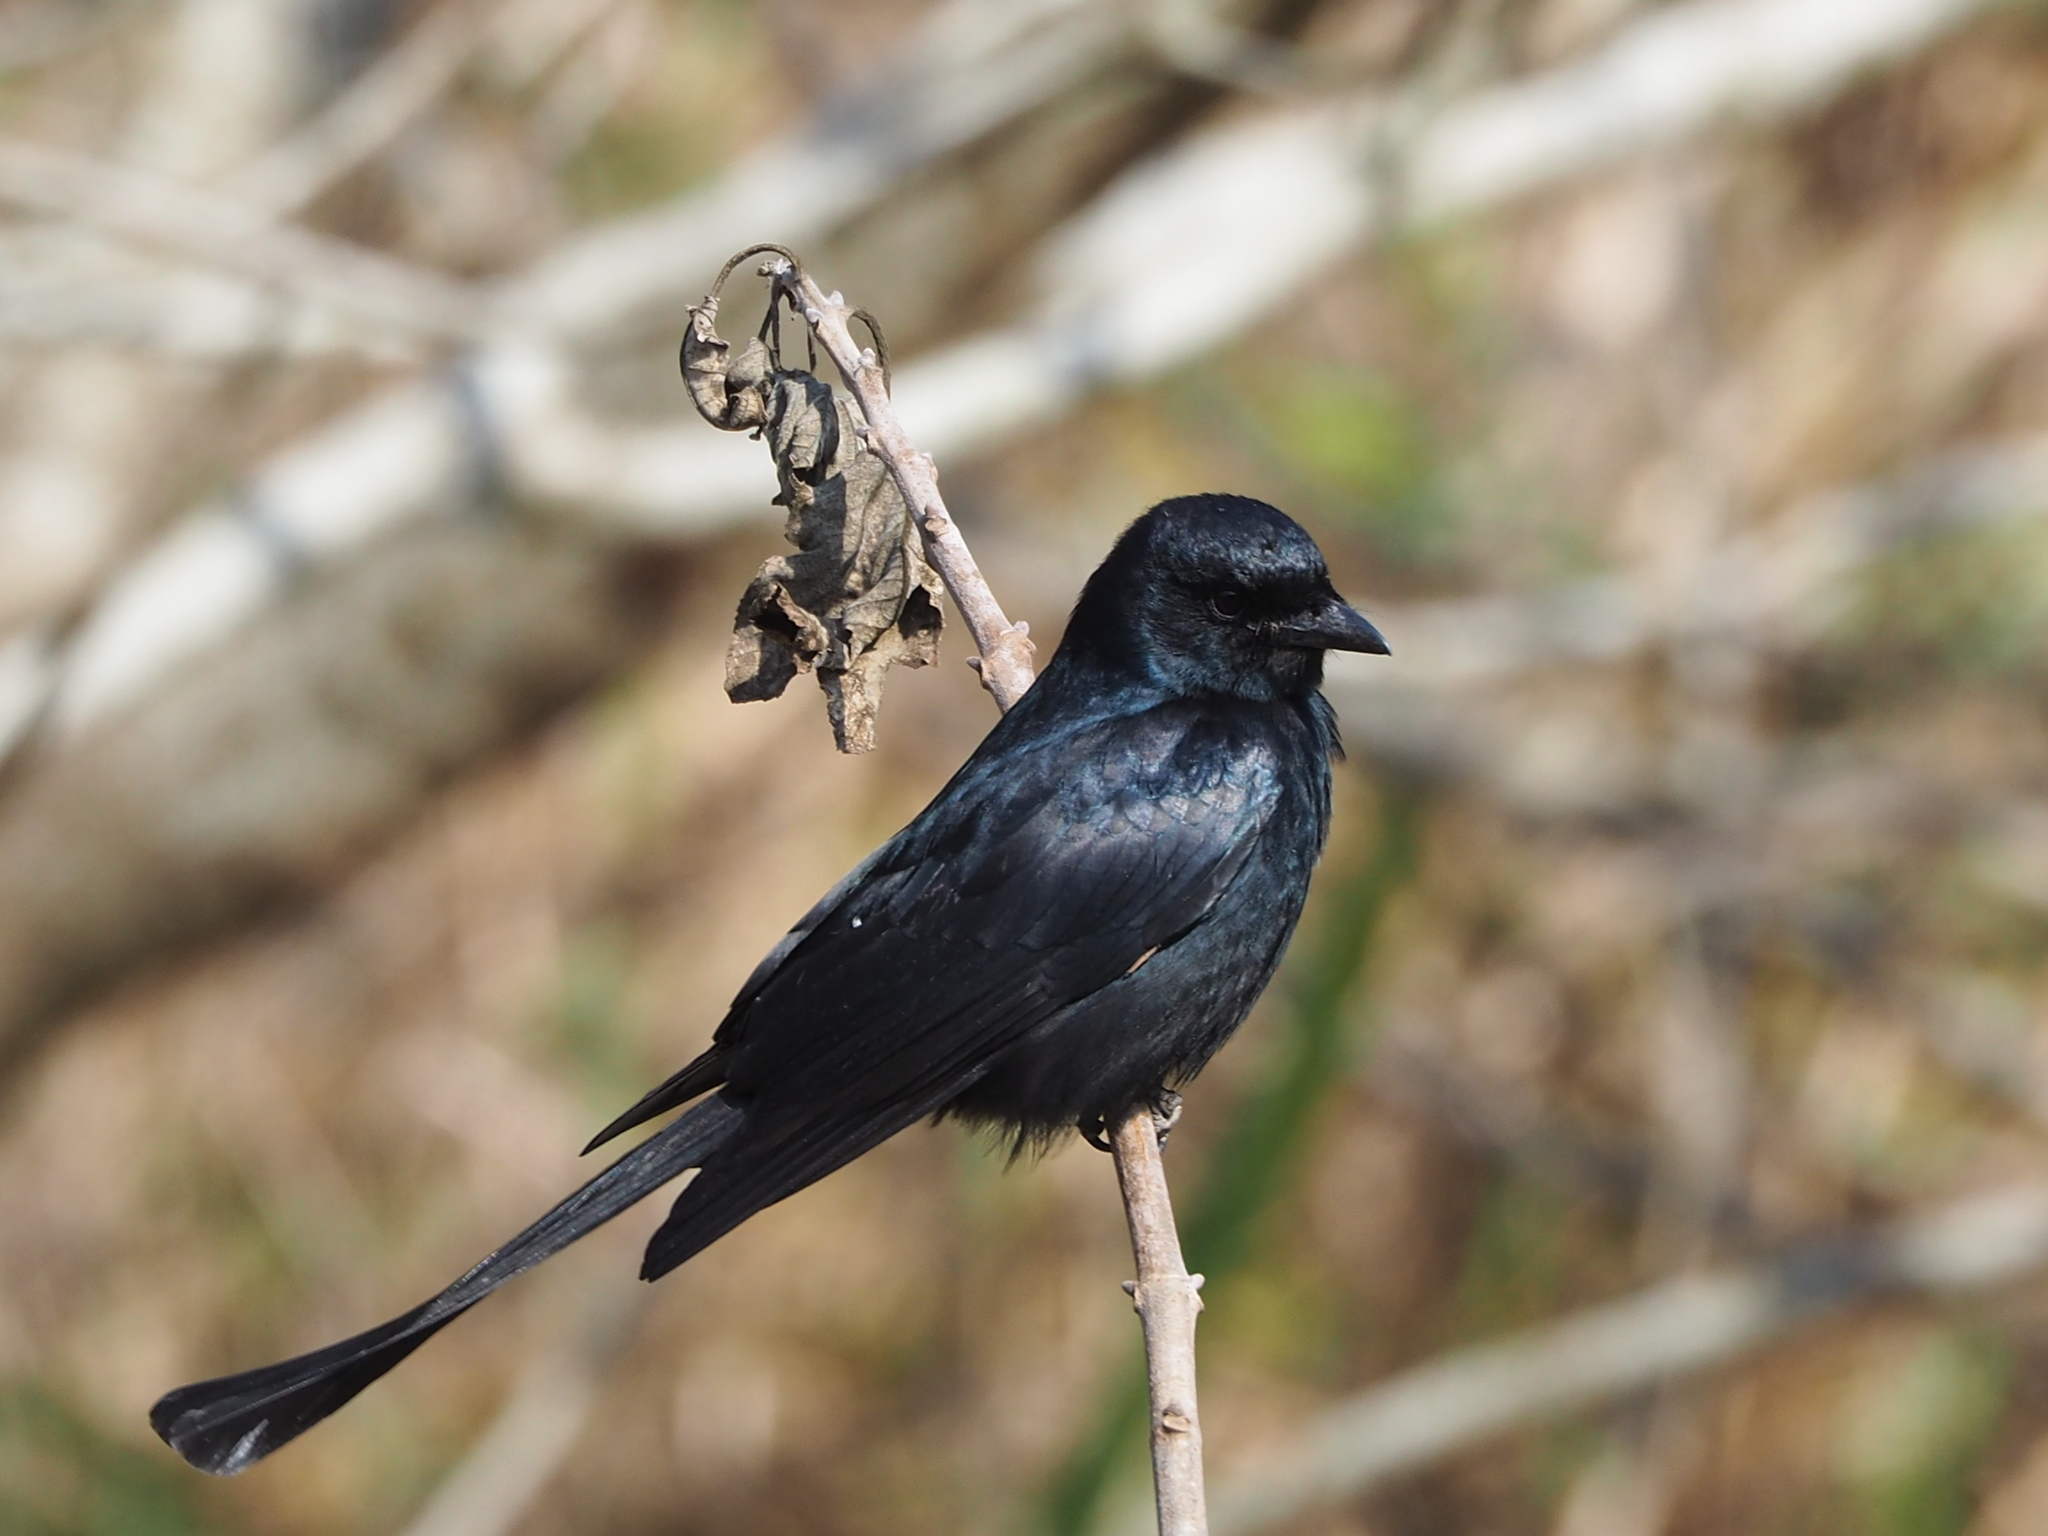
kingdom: Animalia
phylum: Chordata
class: Aves
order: Passeriformes
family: Dicruridae
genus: Dicrurus
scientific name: Dicrurus macrocercus
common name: Black drongo
